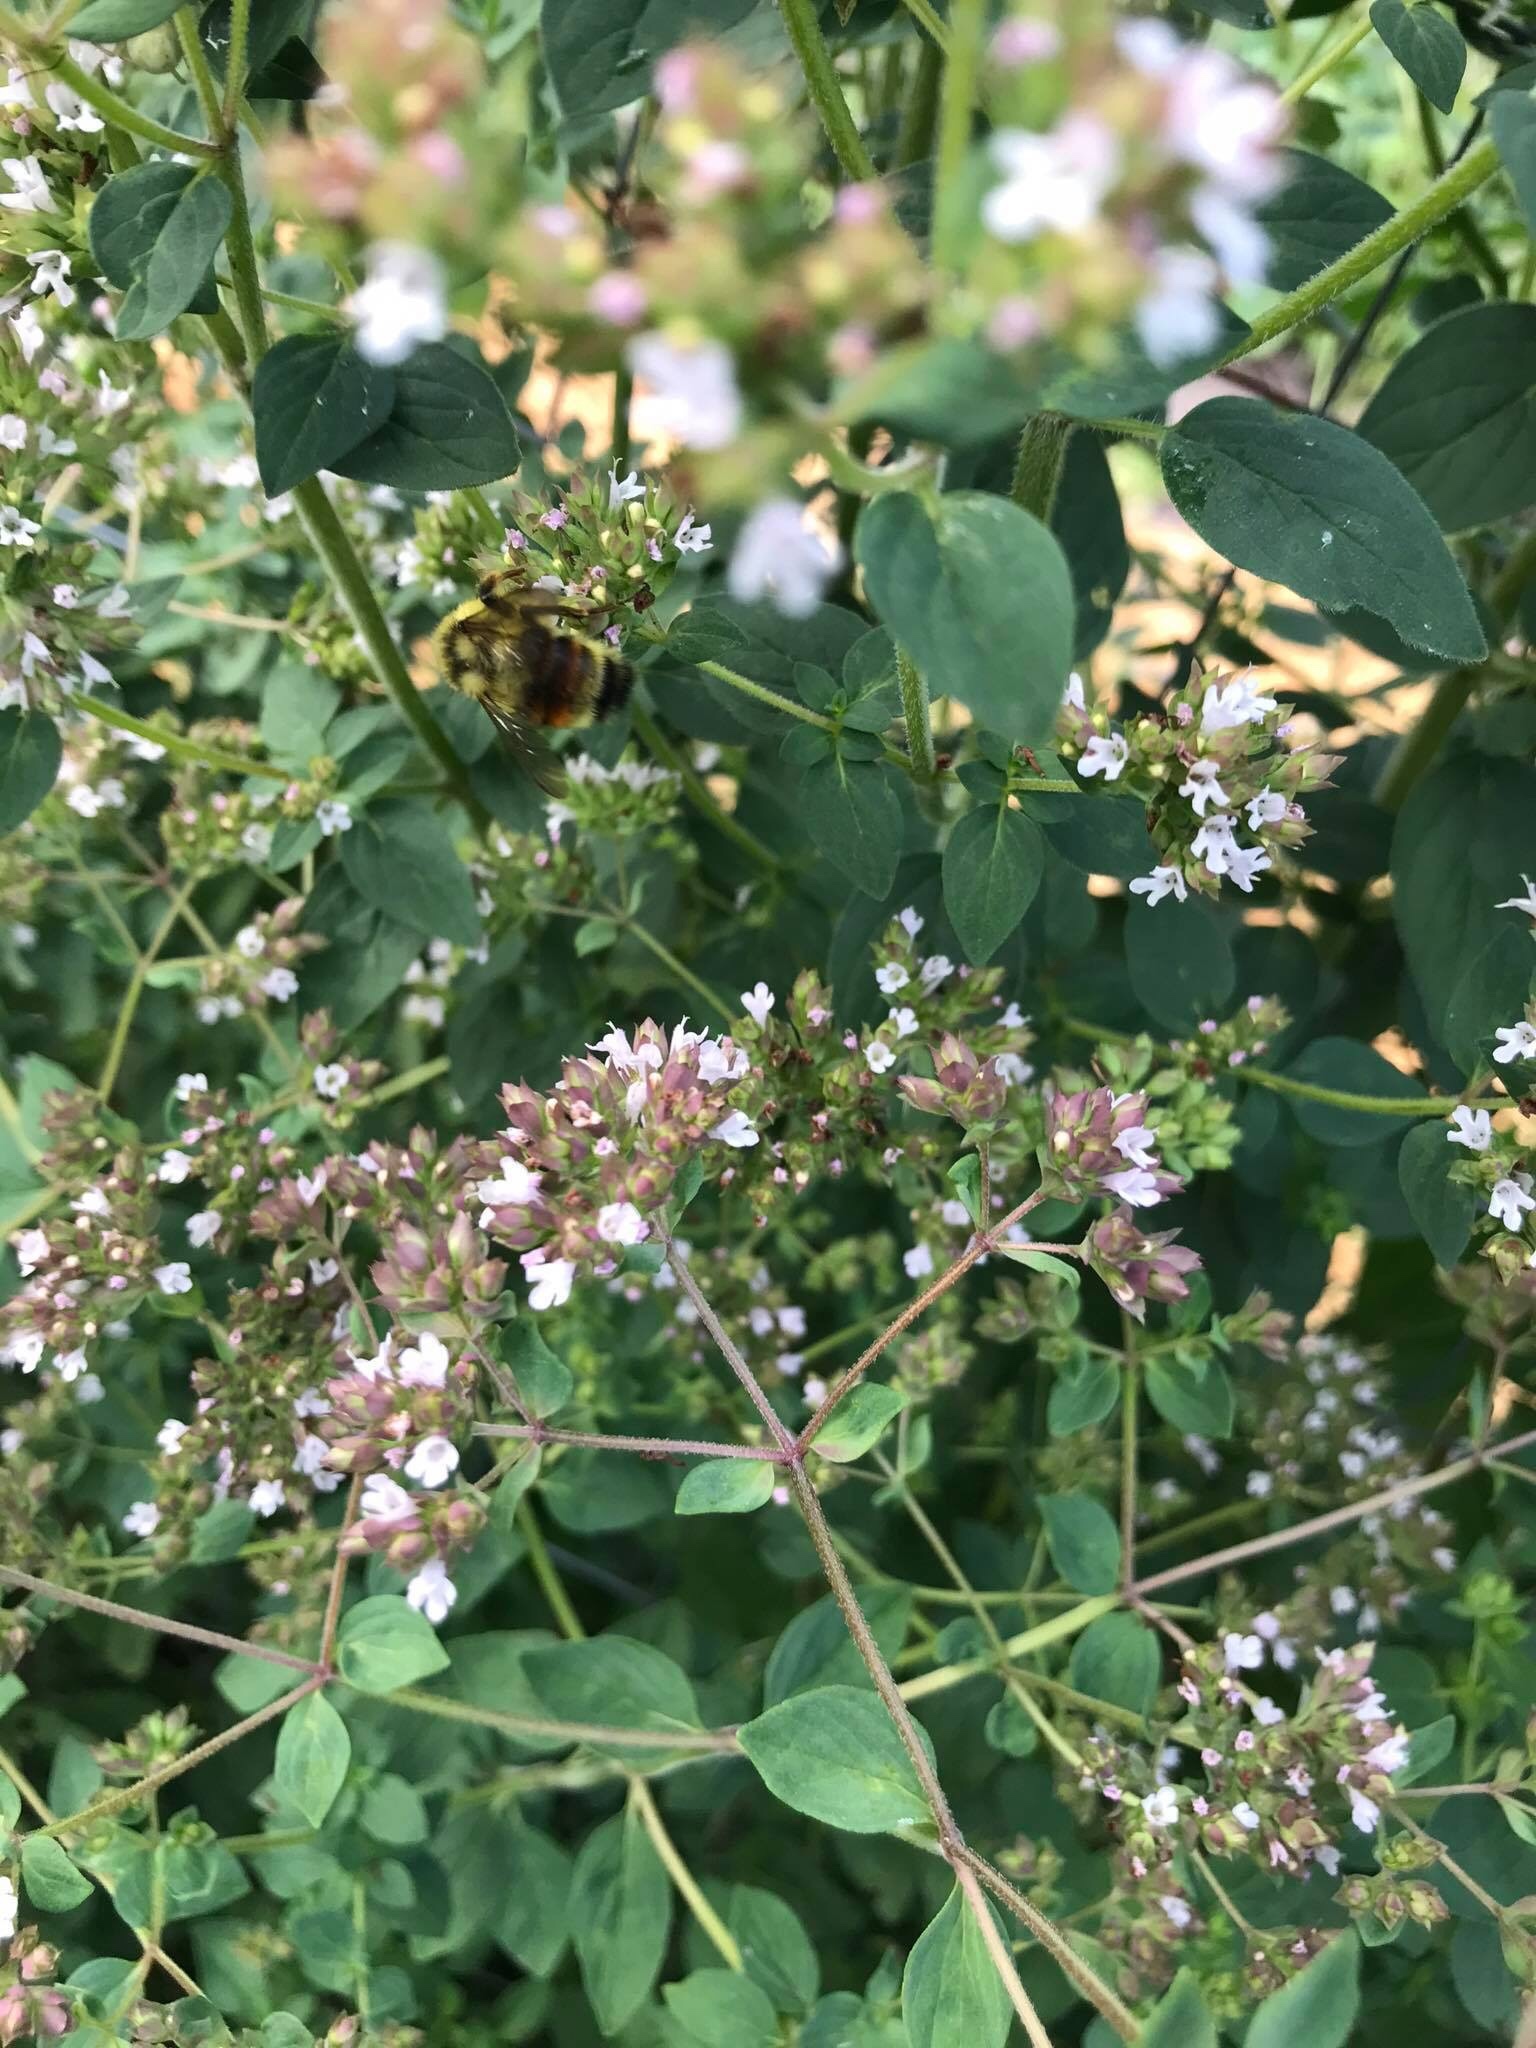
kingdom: Animalia
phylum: Arthropoda
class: Insecta
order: Hymenoptera
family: Apidae
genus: Bombus
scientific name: Bombus vancouverensis
